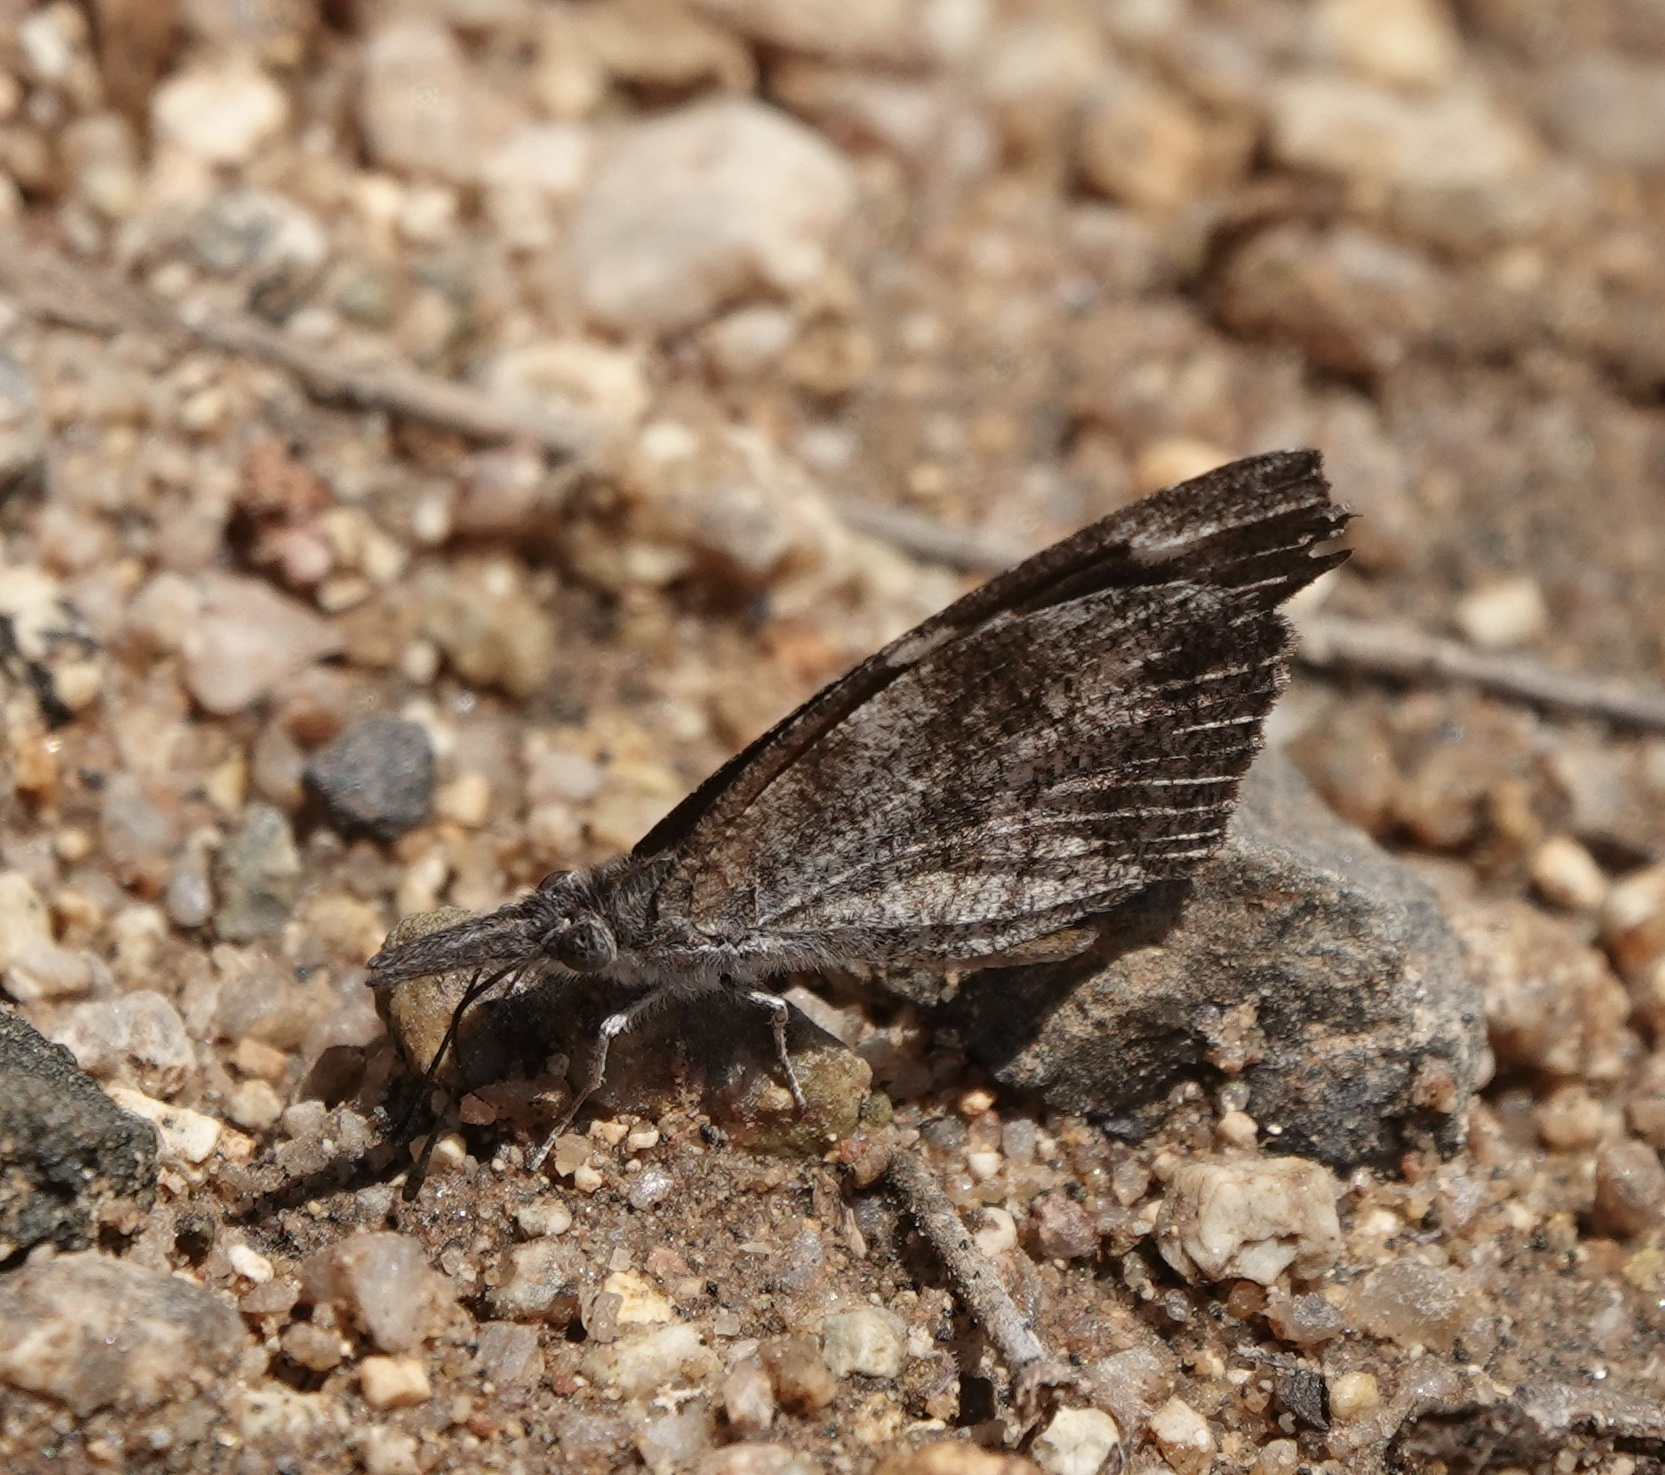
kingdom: Animalia
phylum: Arthropoda
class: Insecta
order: Lepidoptera
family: Nymphalidae
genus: Libytheana
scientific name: Libytheana carinenta
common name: American snout
